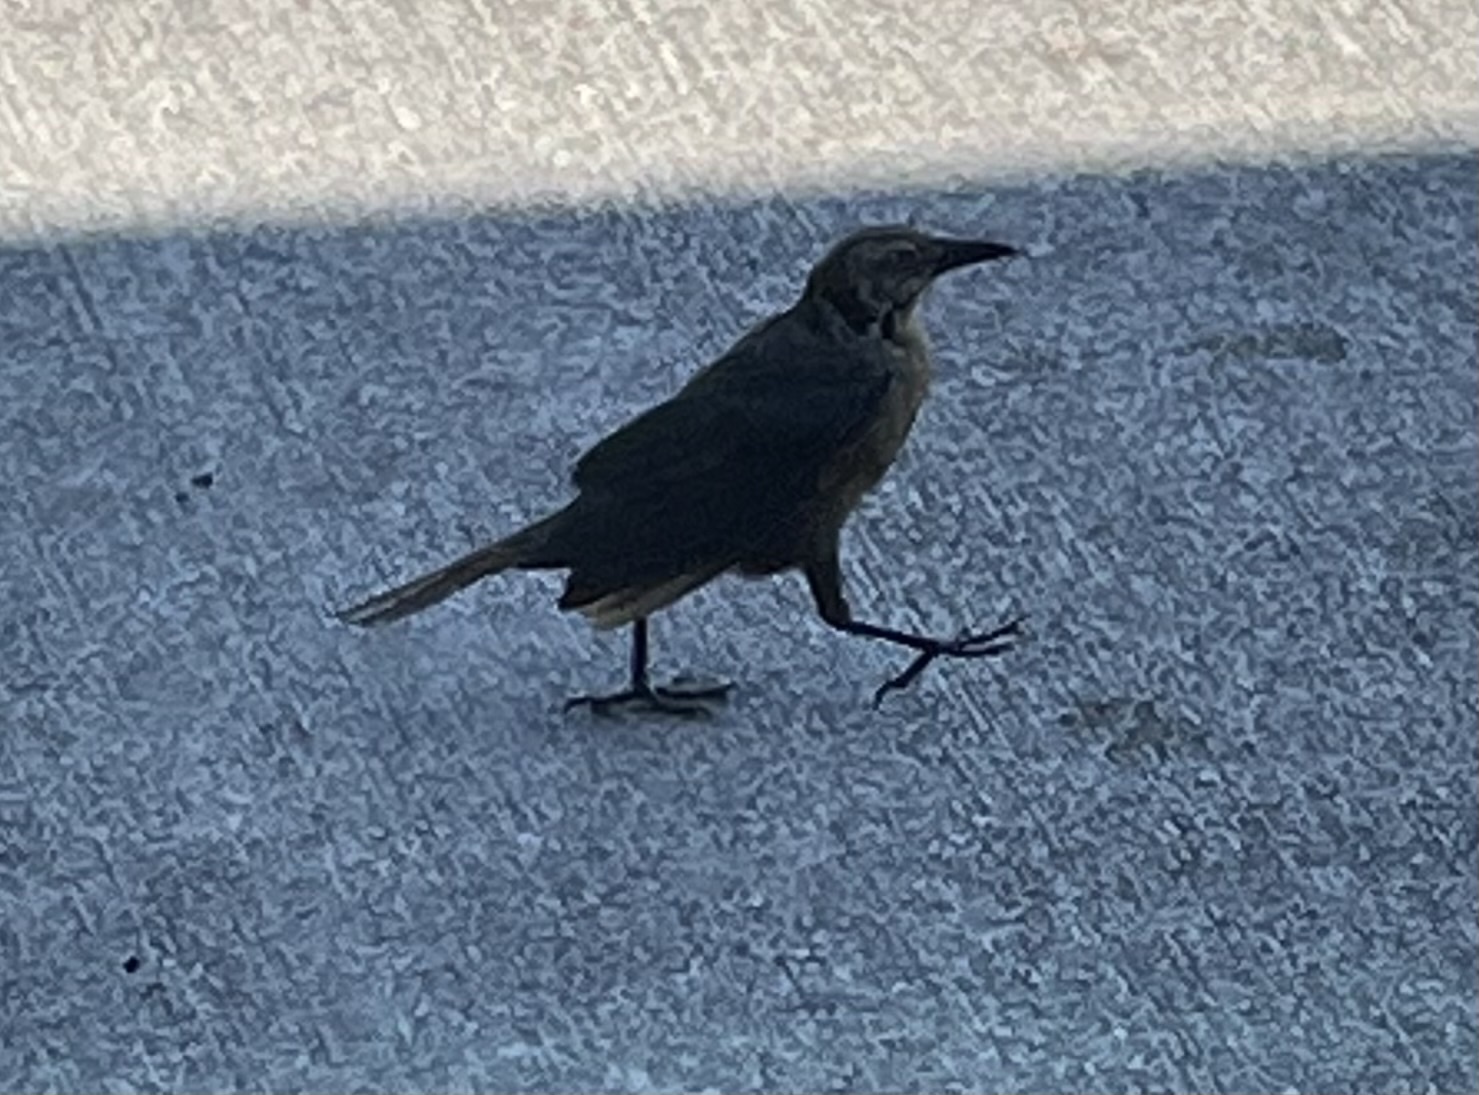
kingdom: Animalia
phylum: Chordata
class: Aves
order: Passeriformes
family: Icteridae
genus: Quiscalus
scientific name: Quiscalus mexicanus
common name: Great-tailed grackle
